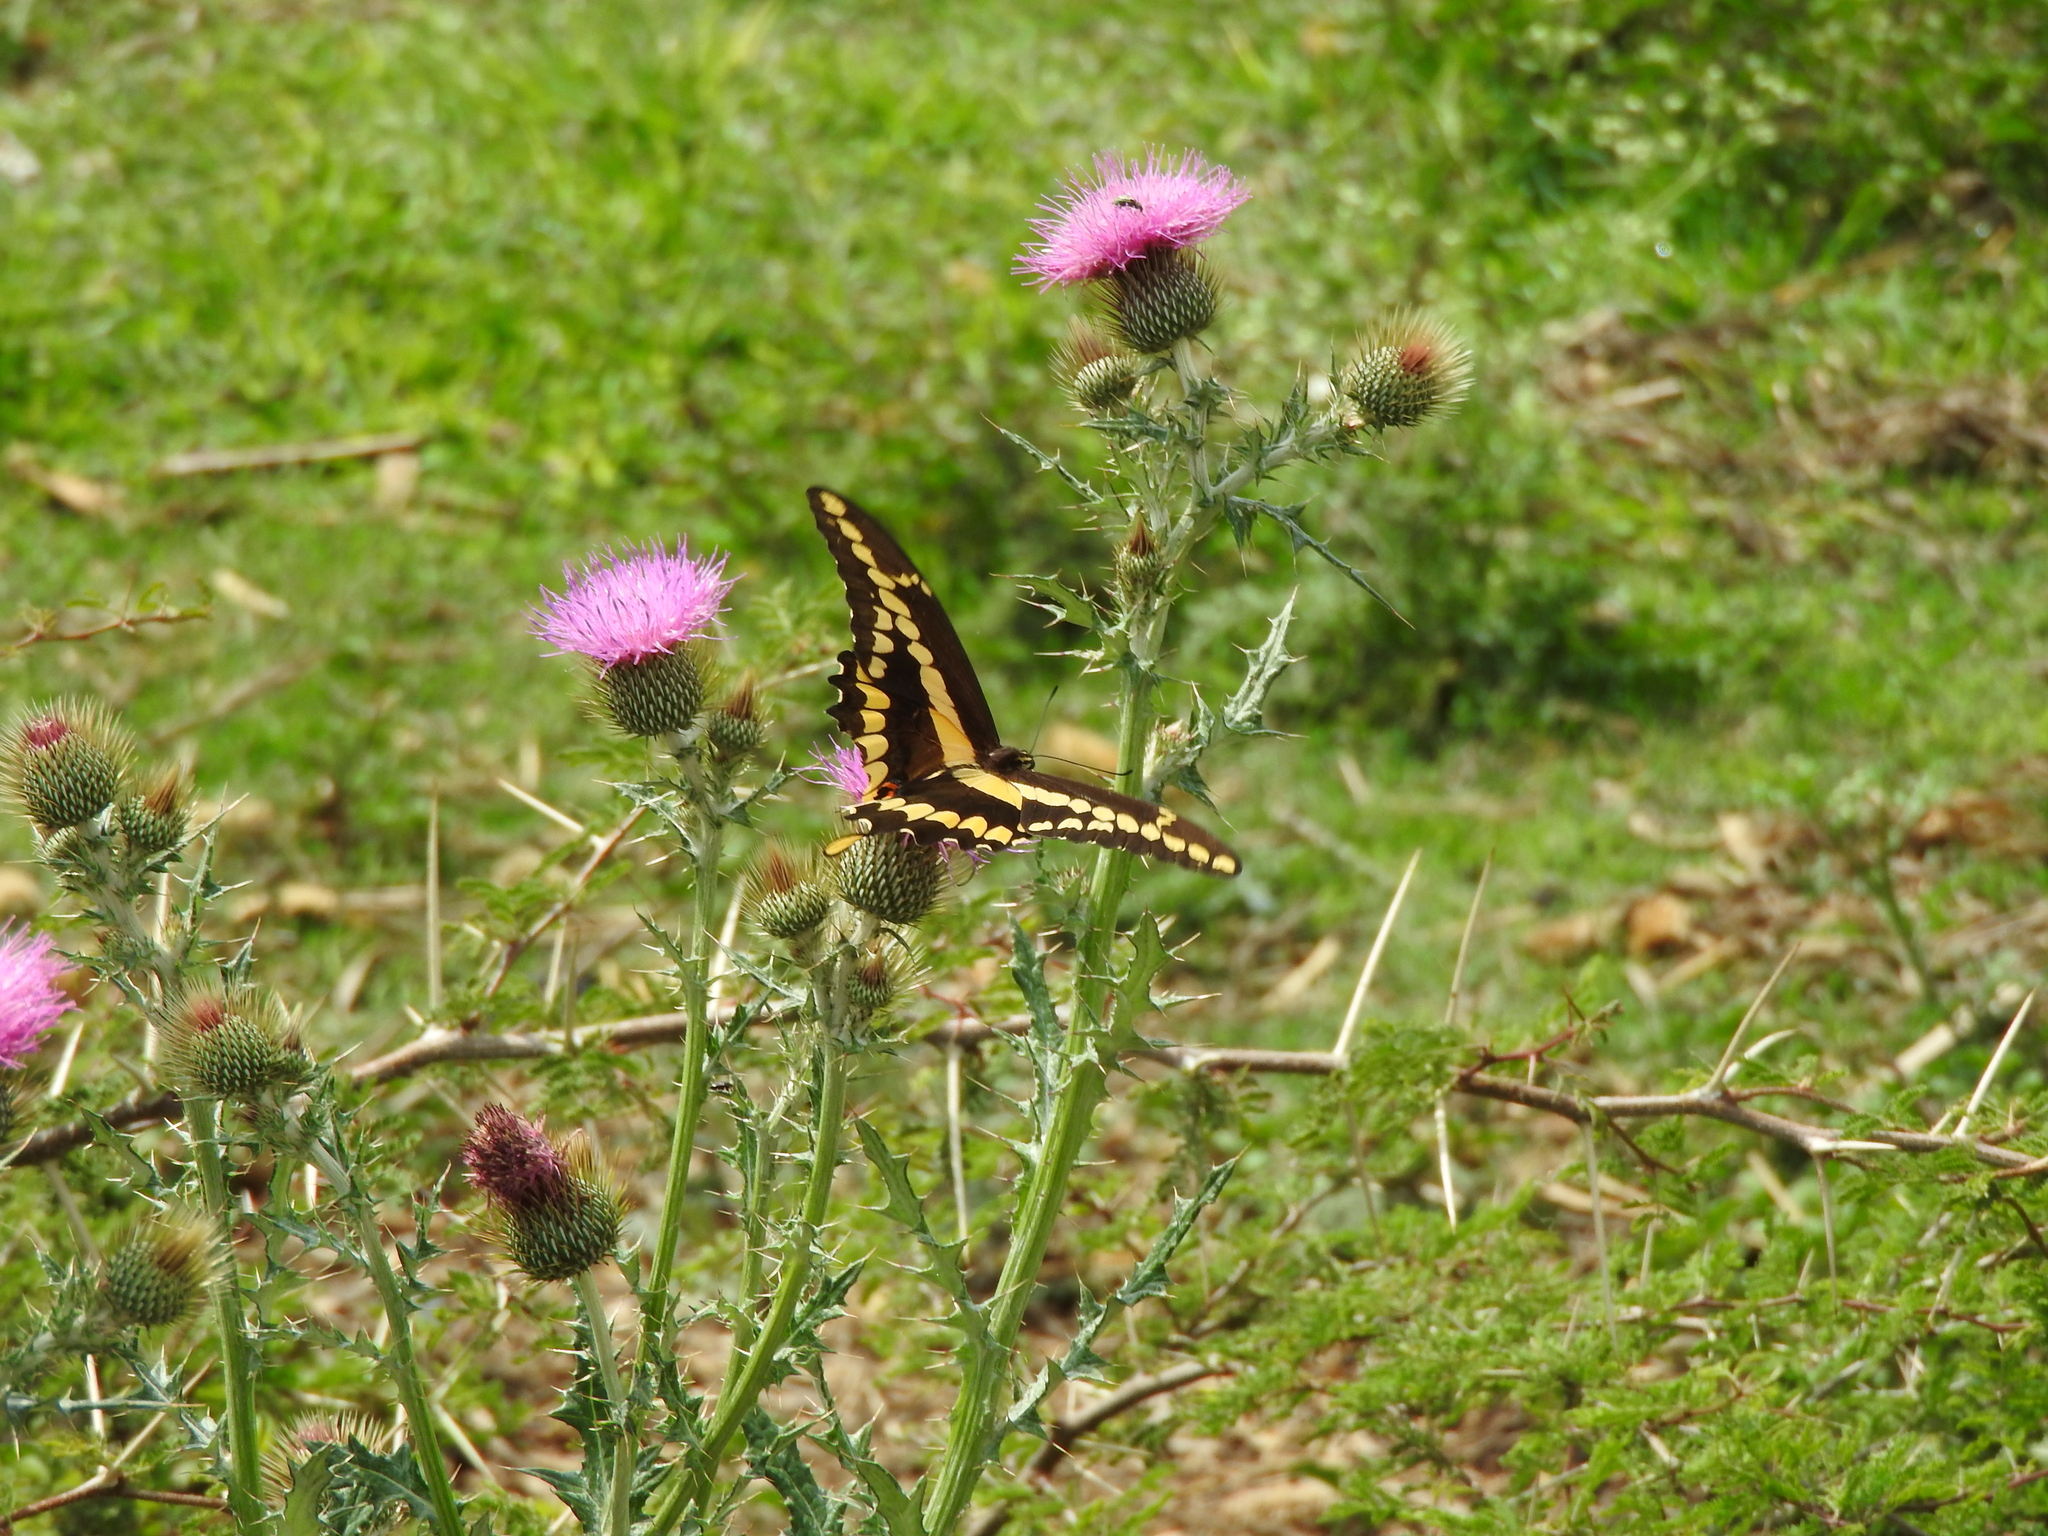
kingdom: Animalia
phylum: Arthropoda
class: Insecta
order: Lepidoptera
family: Papilionidae
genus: Papilio
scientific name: Papilio rumiko
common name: Western giant swallowtail
